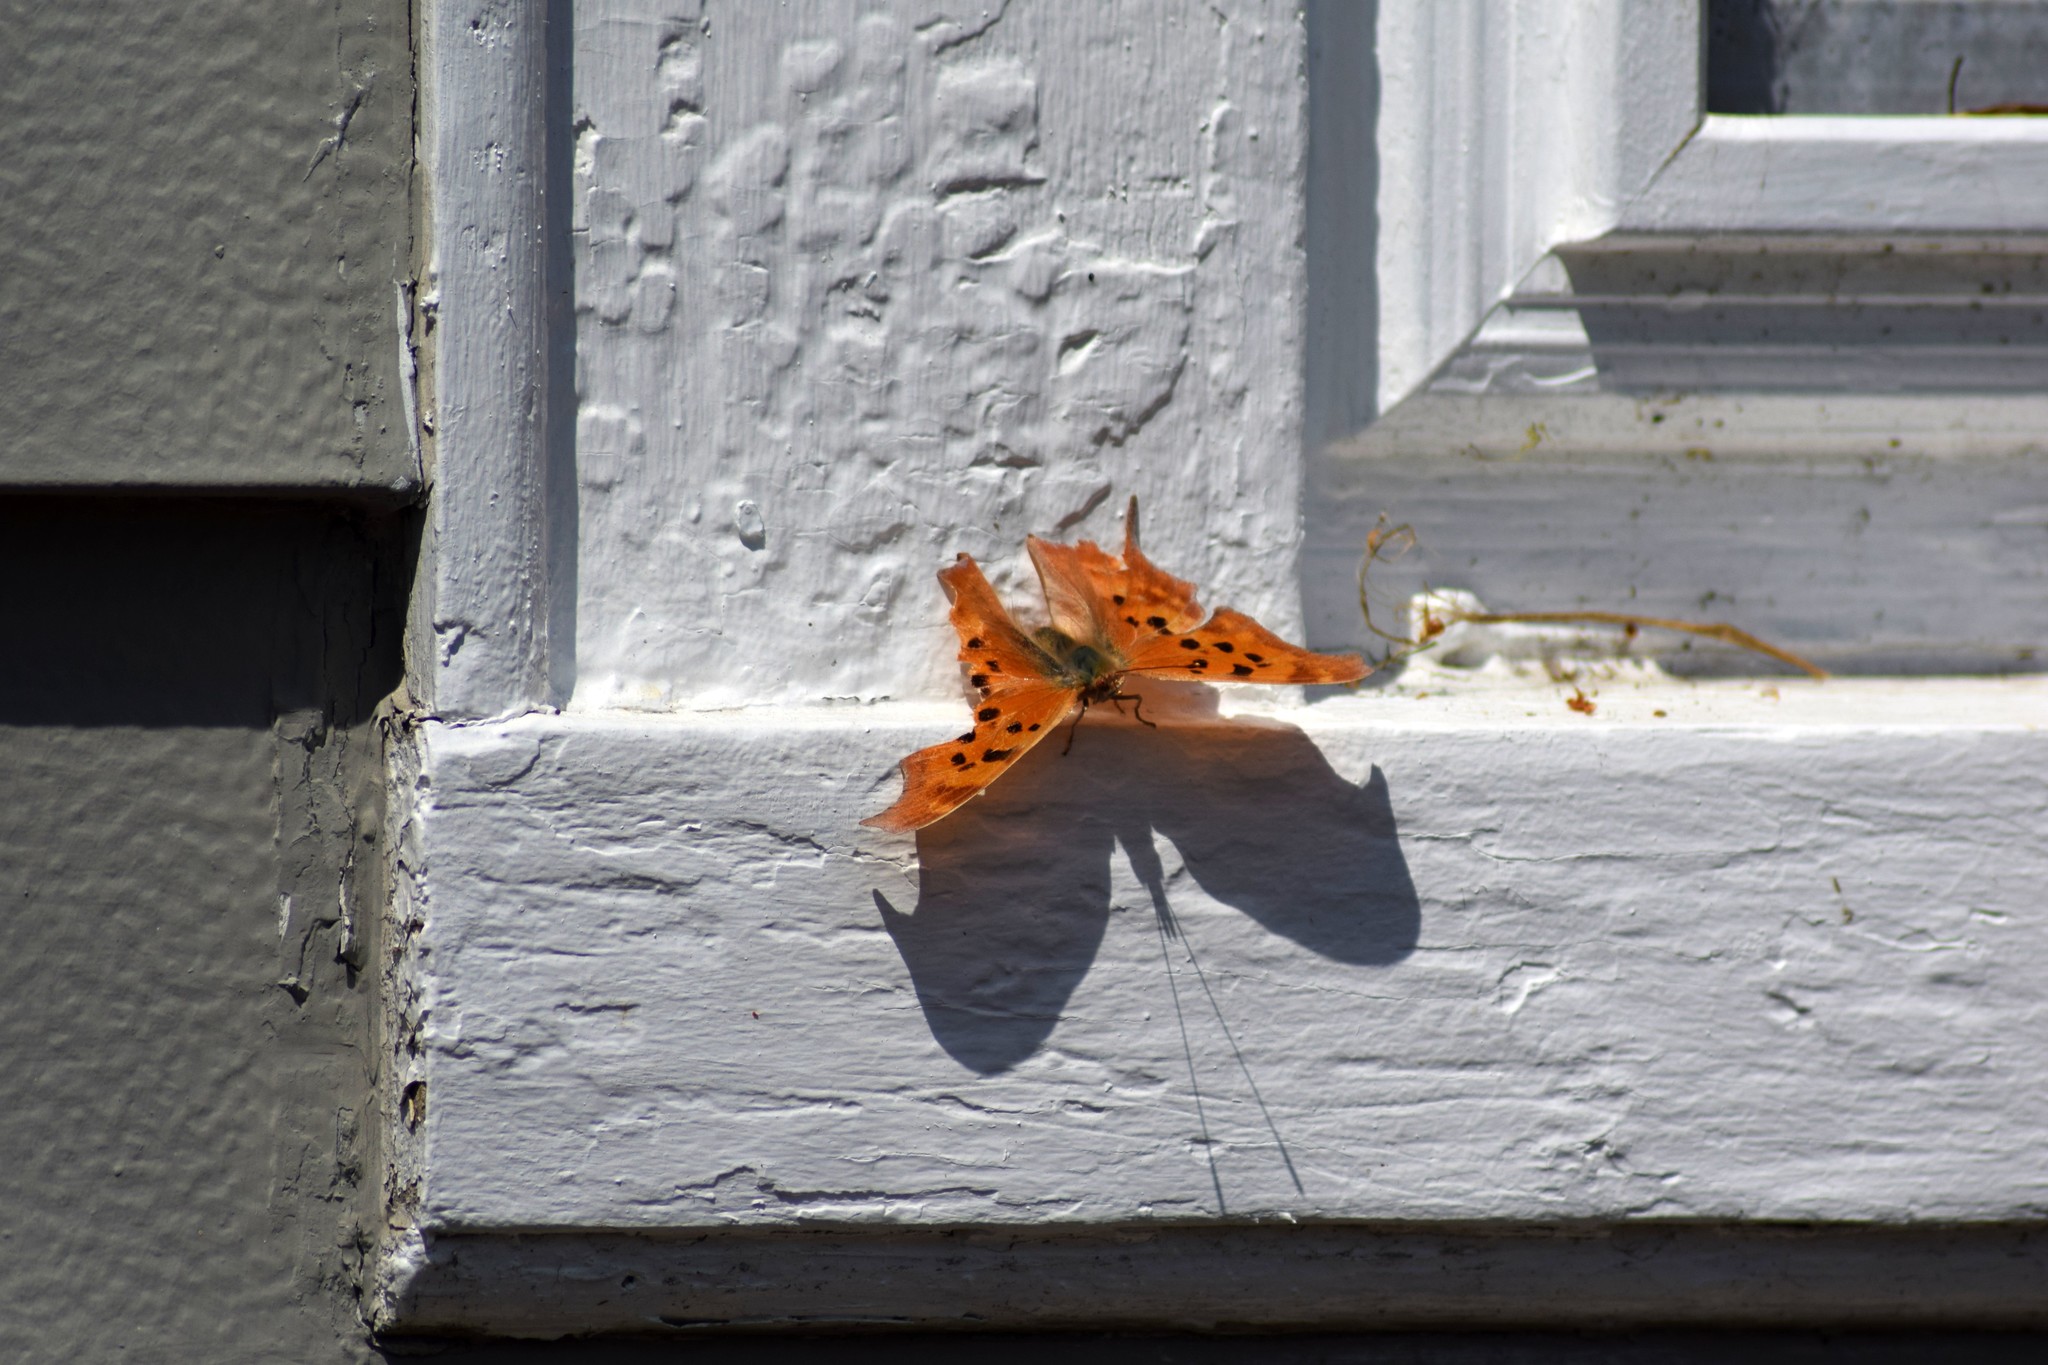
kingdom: Animalia
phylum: Arthropoda
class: Insecta
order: Lepidoptera
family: Nymphalidae
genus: Polygonia
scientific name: Polygonia interrogationis
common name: Question mark
